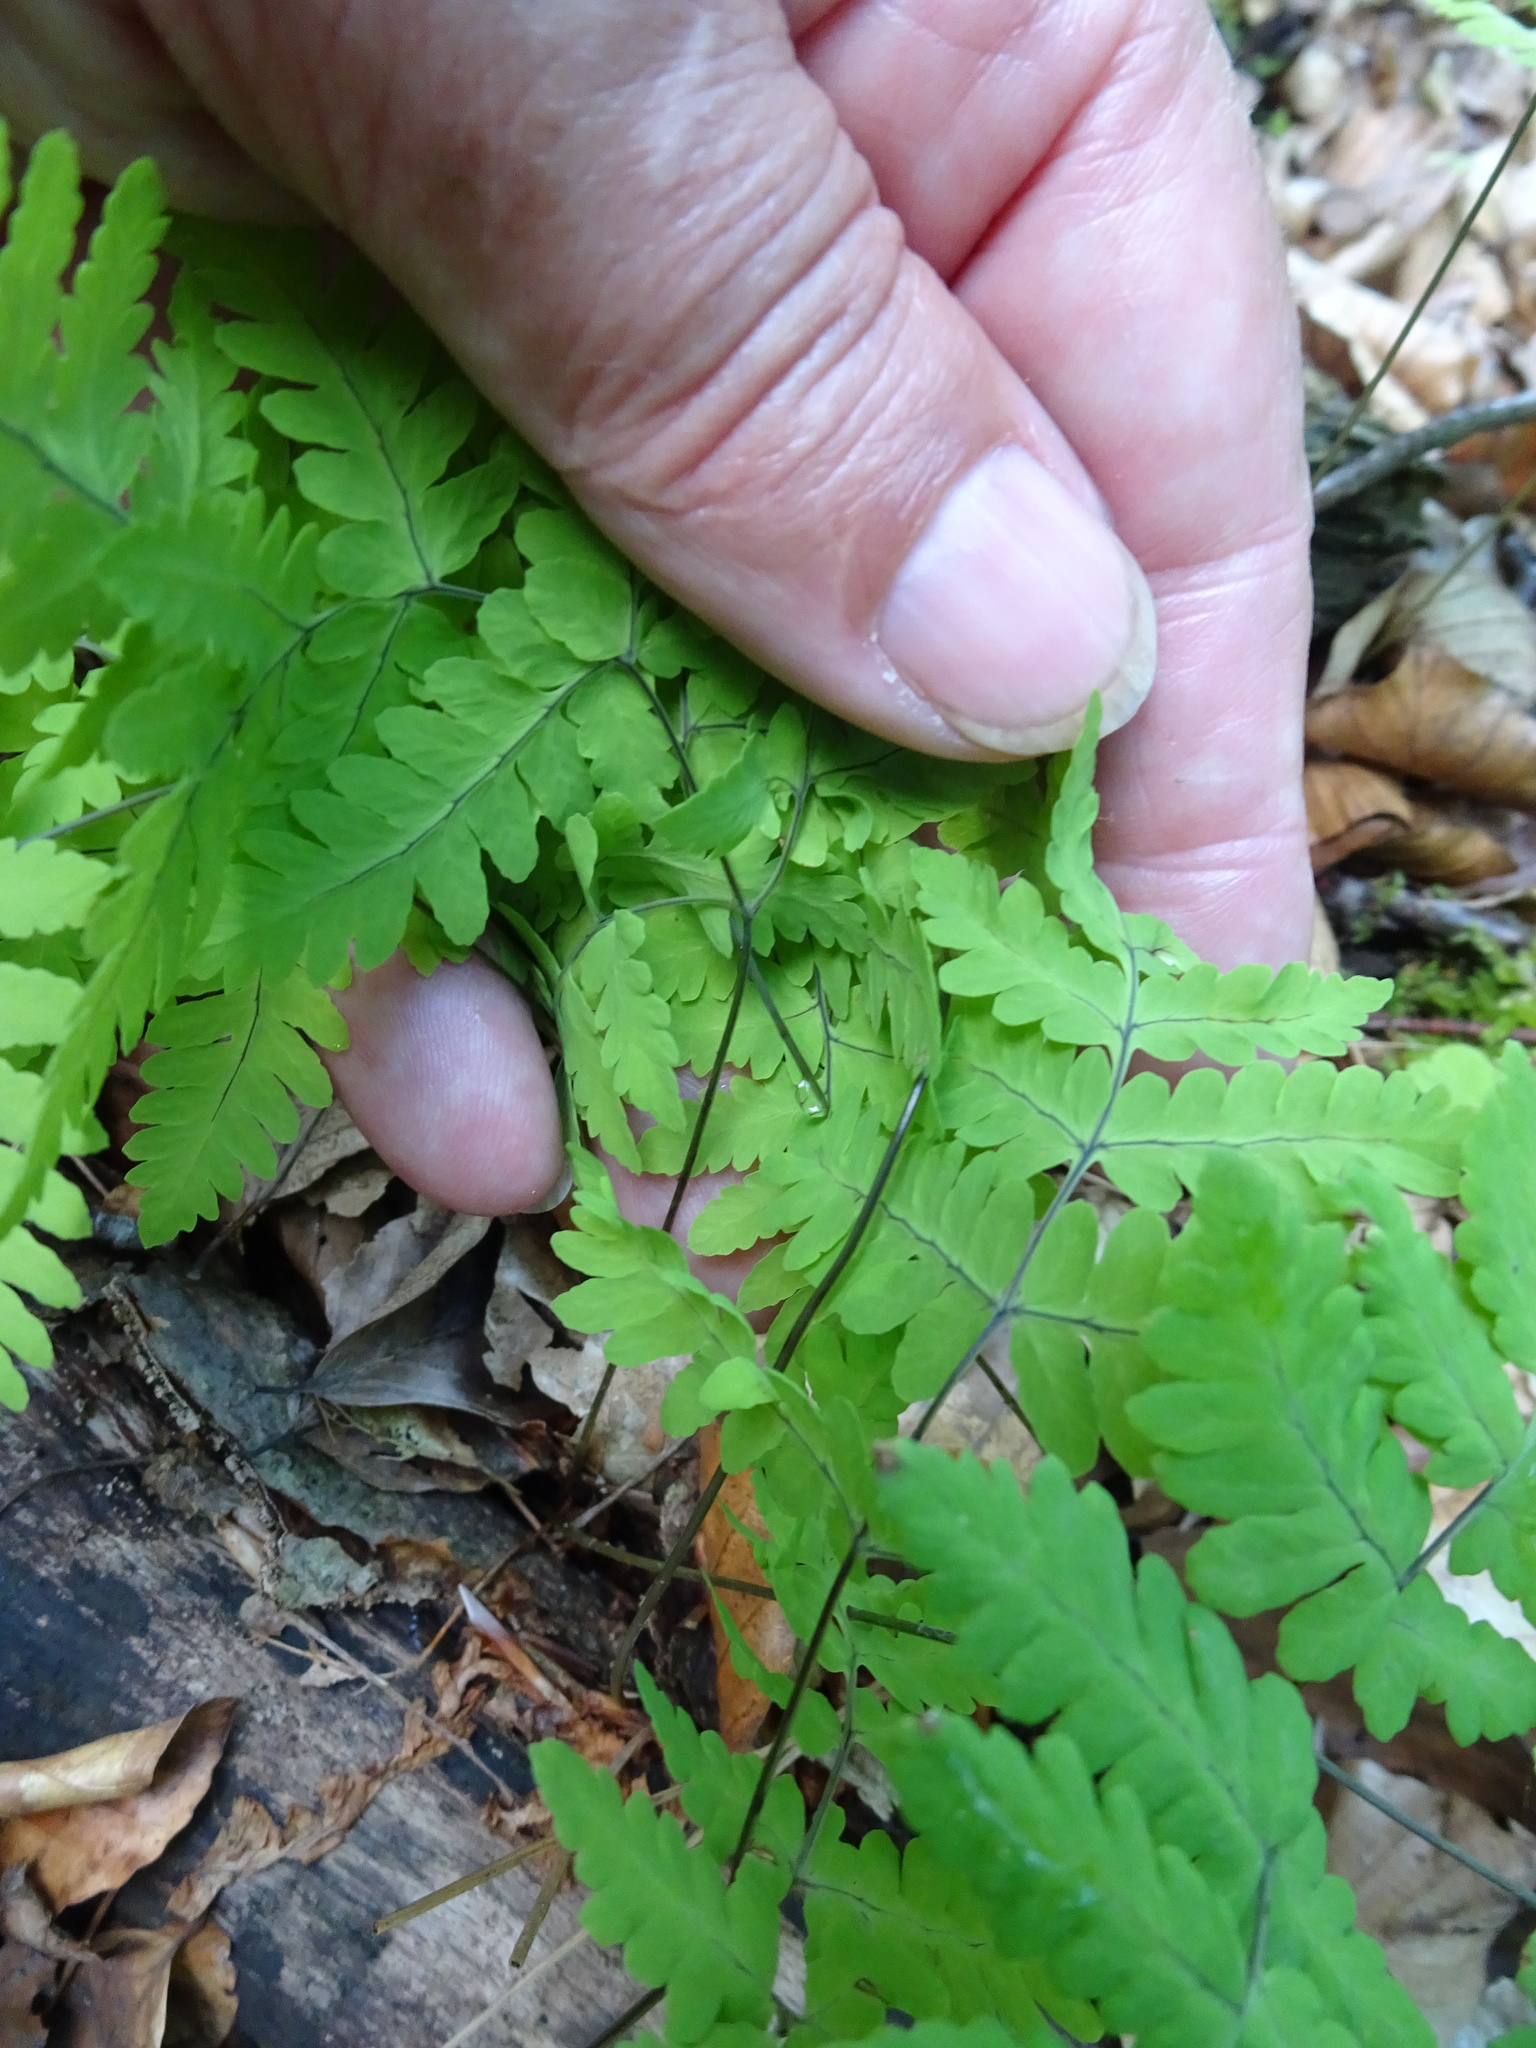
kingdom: Plantae
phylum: Tracheophyta
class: Polypodiopsida
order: Polypodiales
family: Cystopteridaceae
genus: Gymnocarpium
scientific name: Gymnocarpium dryopteris
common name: Oak fern
